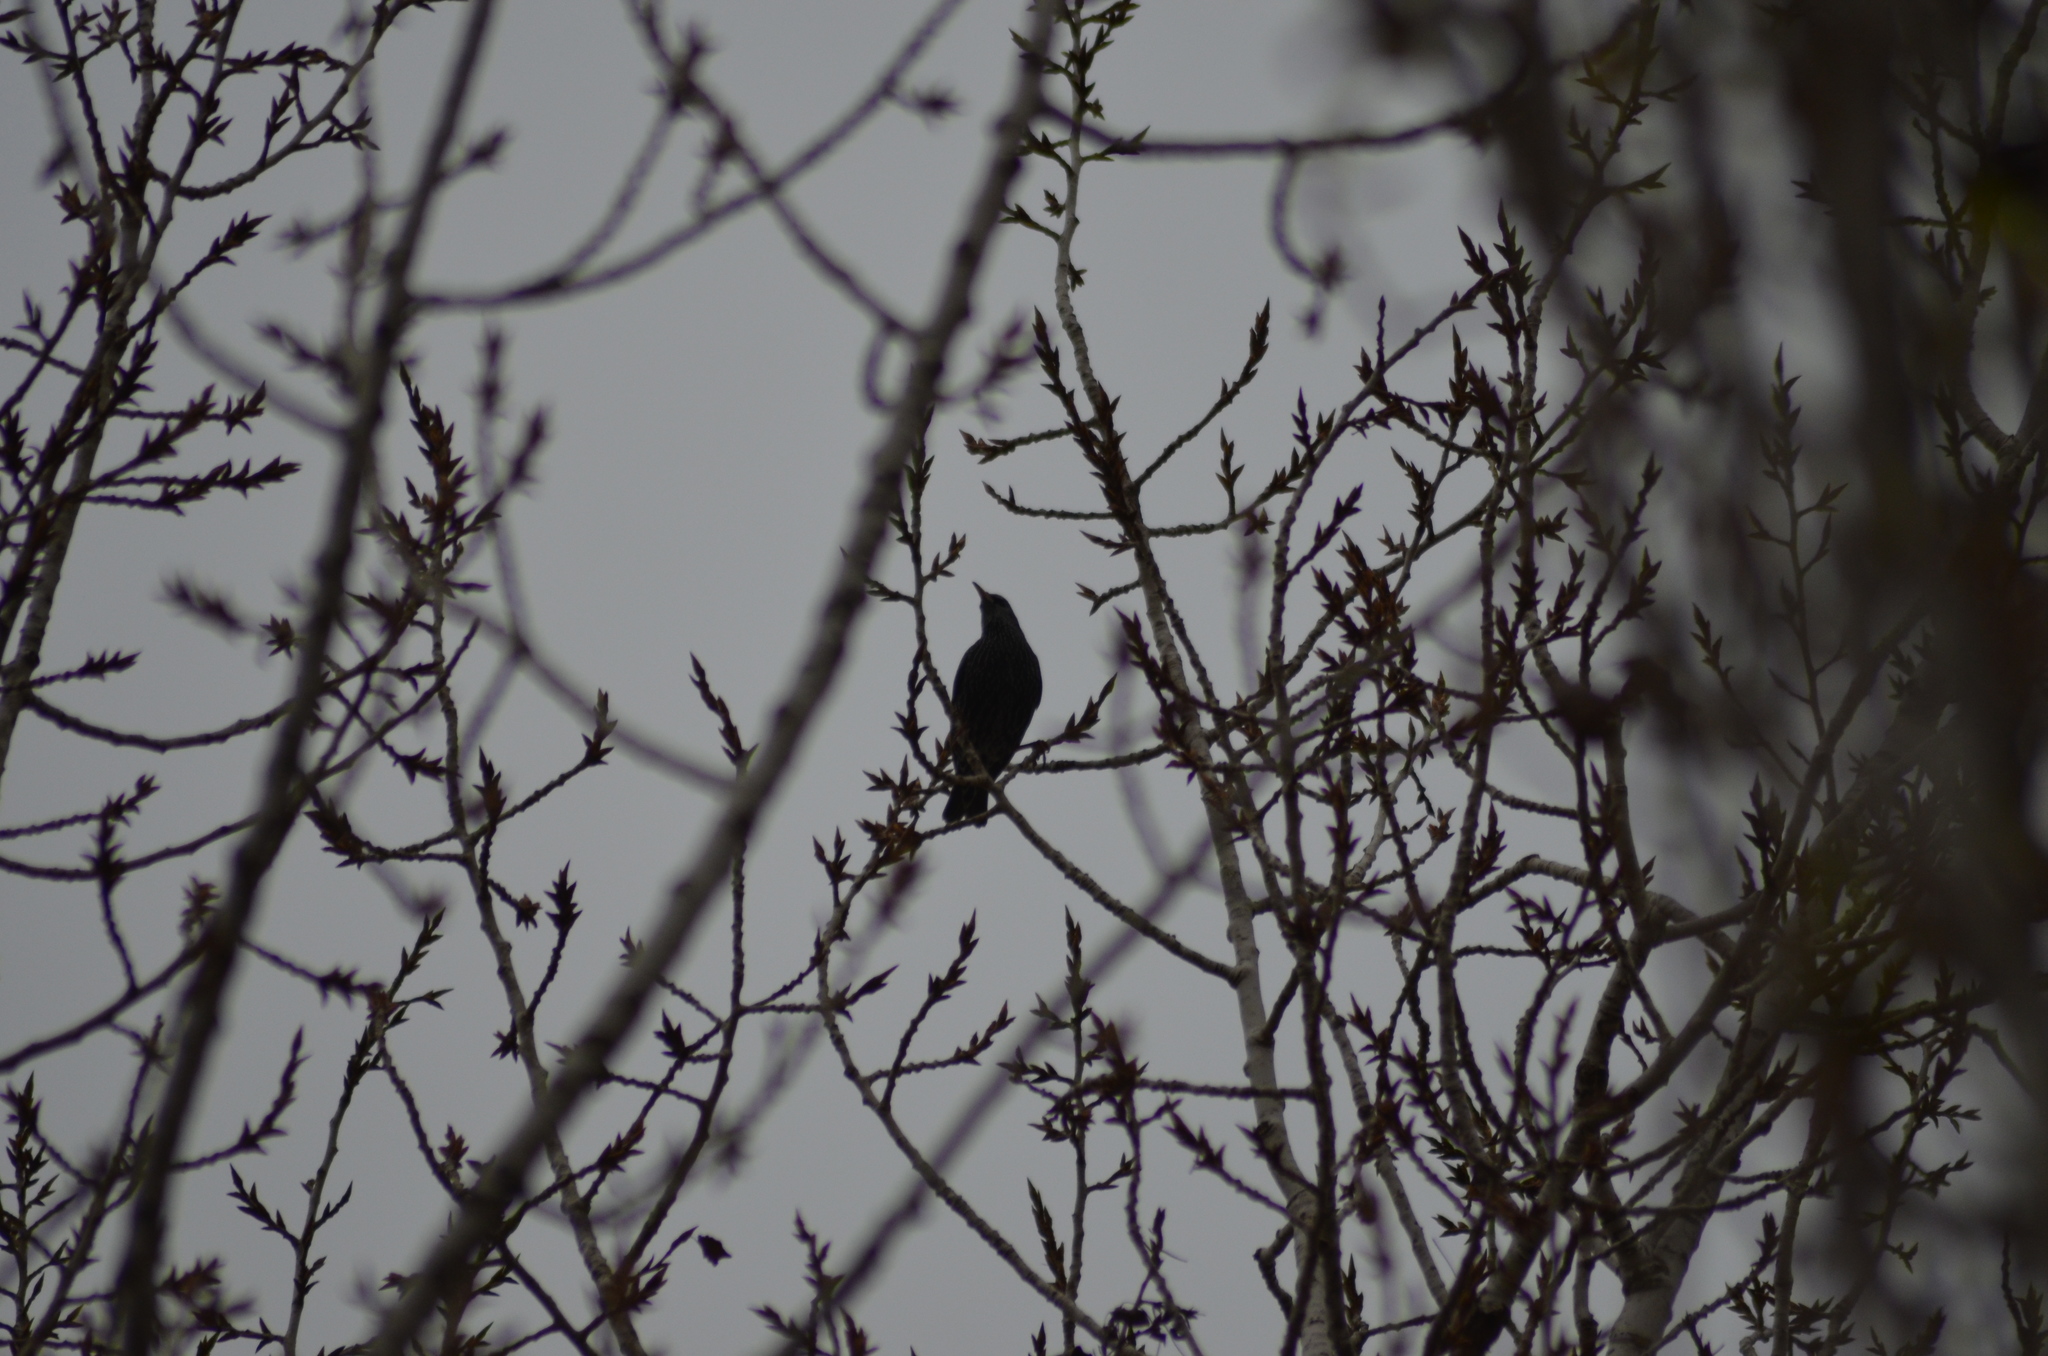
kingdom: Animalia
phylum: Chordata
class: Aves
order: Passeriformes
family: Sturnidae
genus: Sturnus
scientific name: Sturnus vulgaris
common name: Common starling
